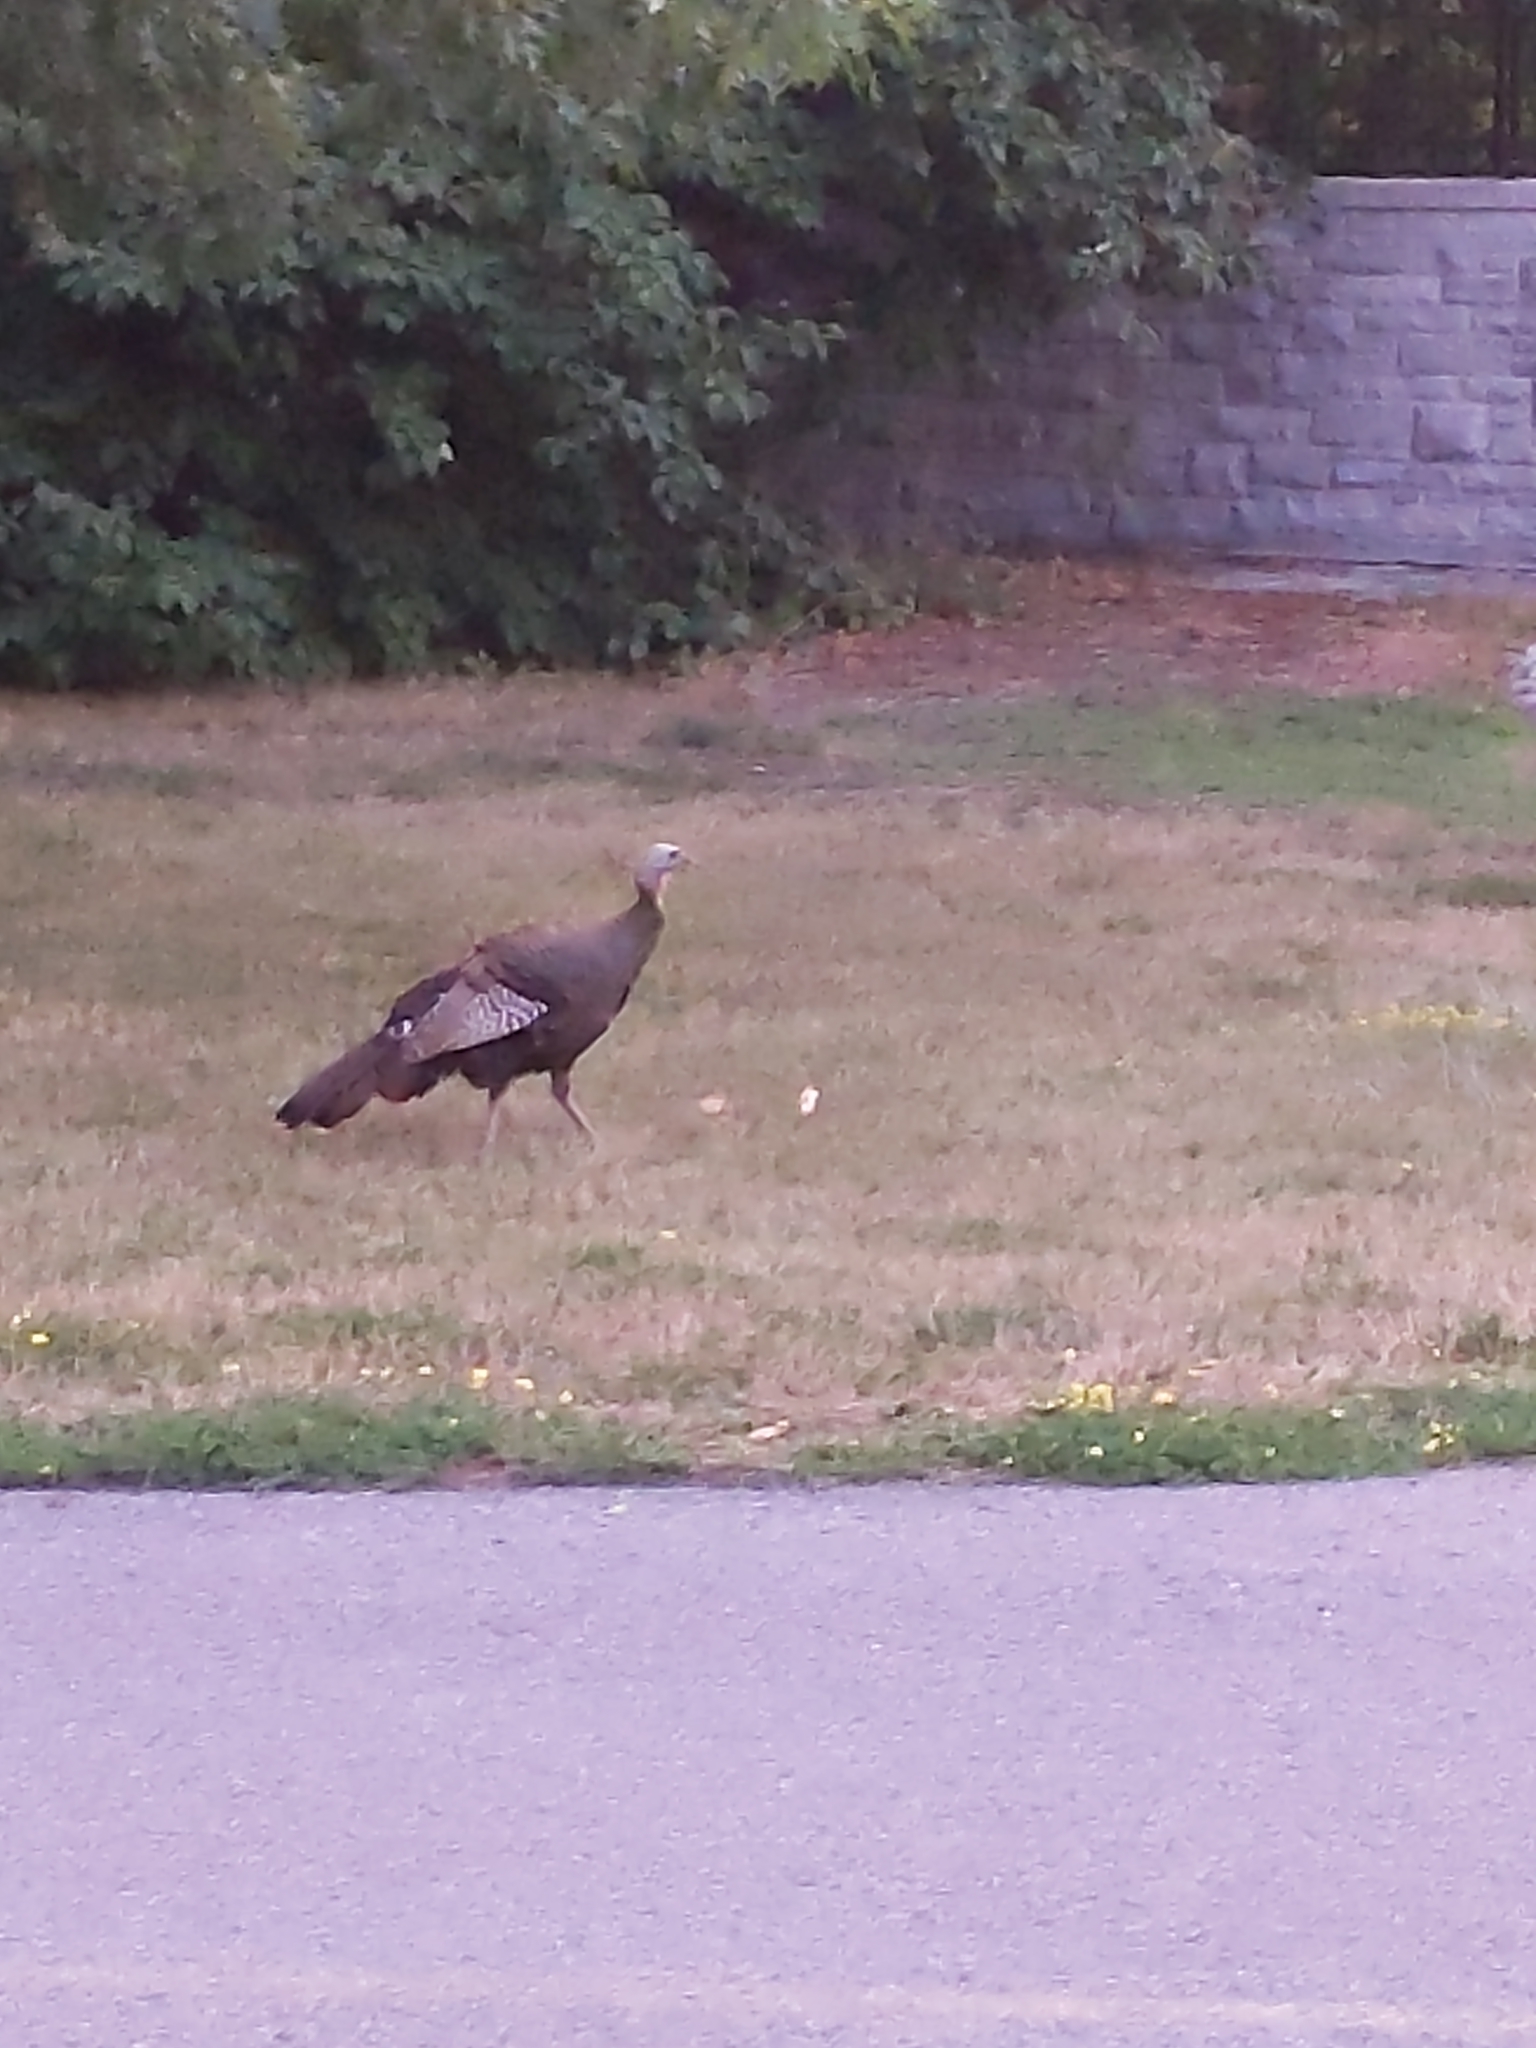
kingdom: Animalia
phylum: Chordata
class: Aves
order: Galliformes
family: Phasianidae
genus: Meleagris
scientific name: Meleagris gallopavo
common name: Wild turkey
